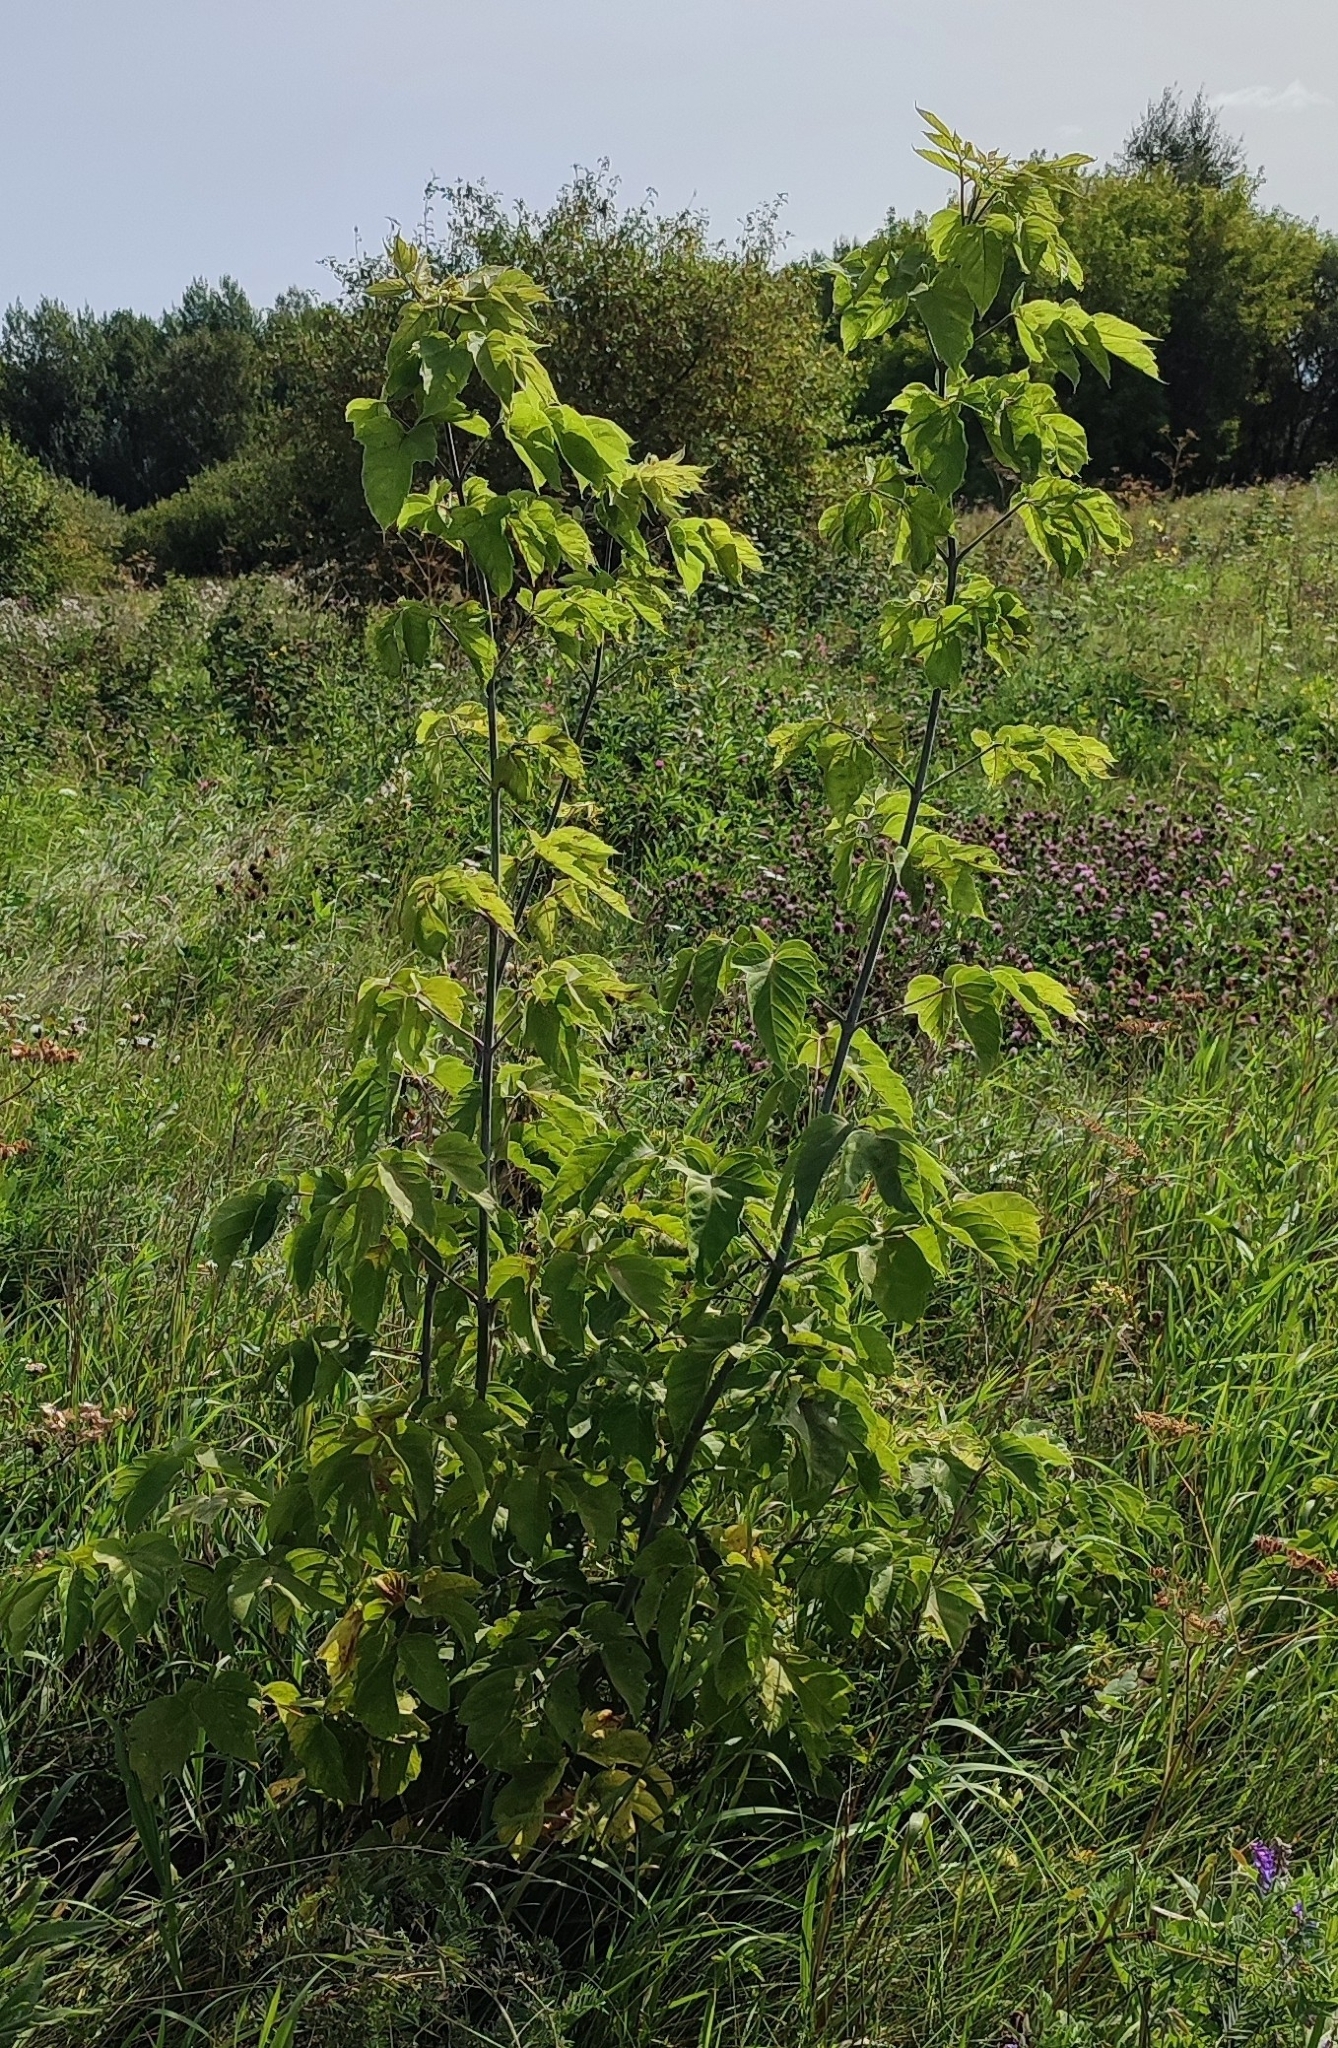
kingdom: Plantae
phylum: Tracheophyta
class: Magnoliopsida
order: Sapindales
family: Sapindaceae
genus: Acer
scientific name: Acer negundo
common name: Ashleaf maple
